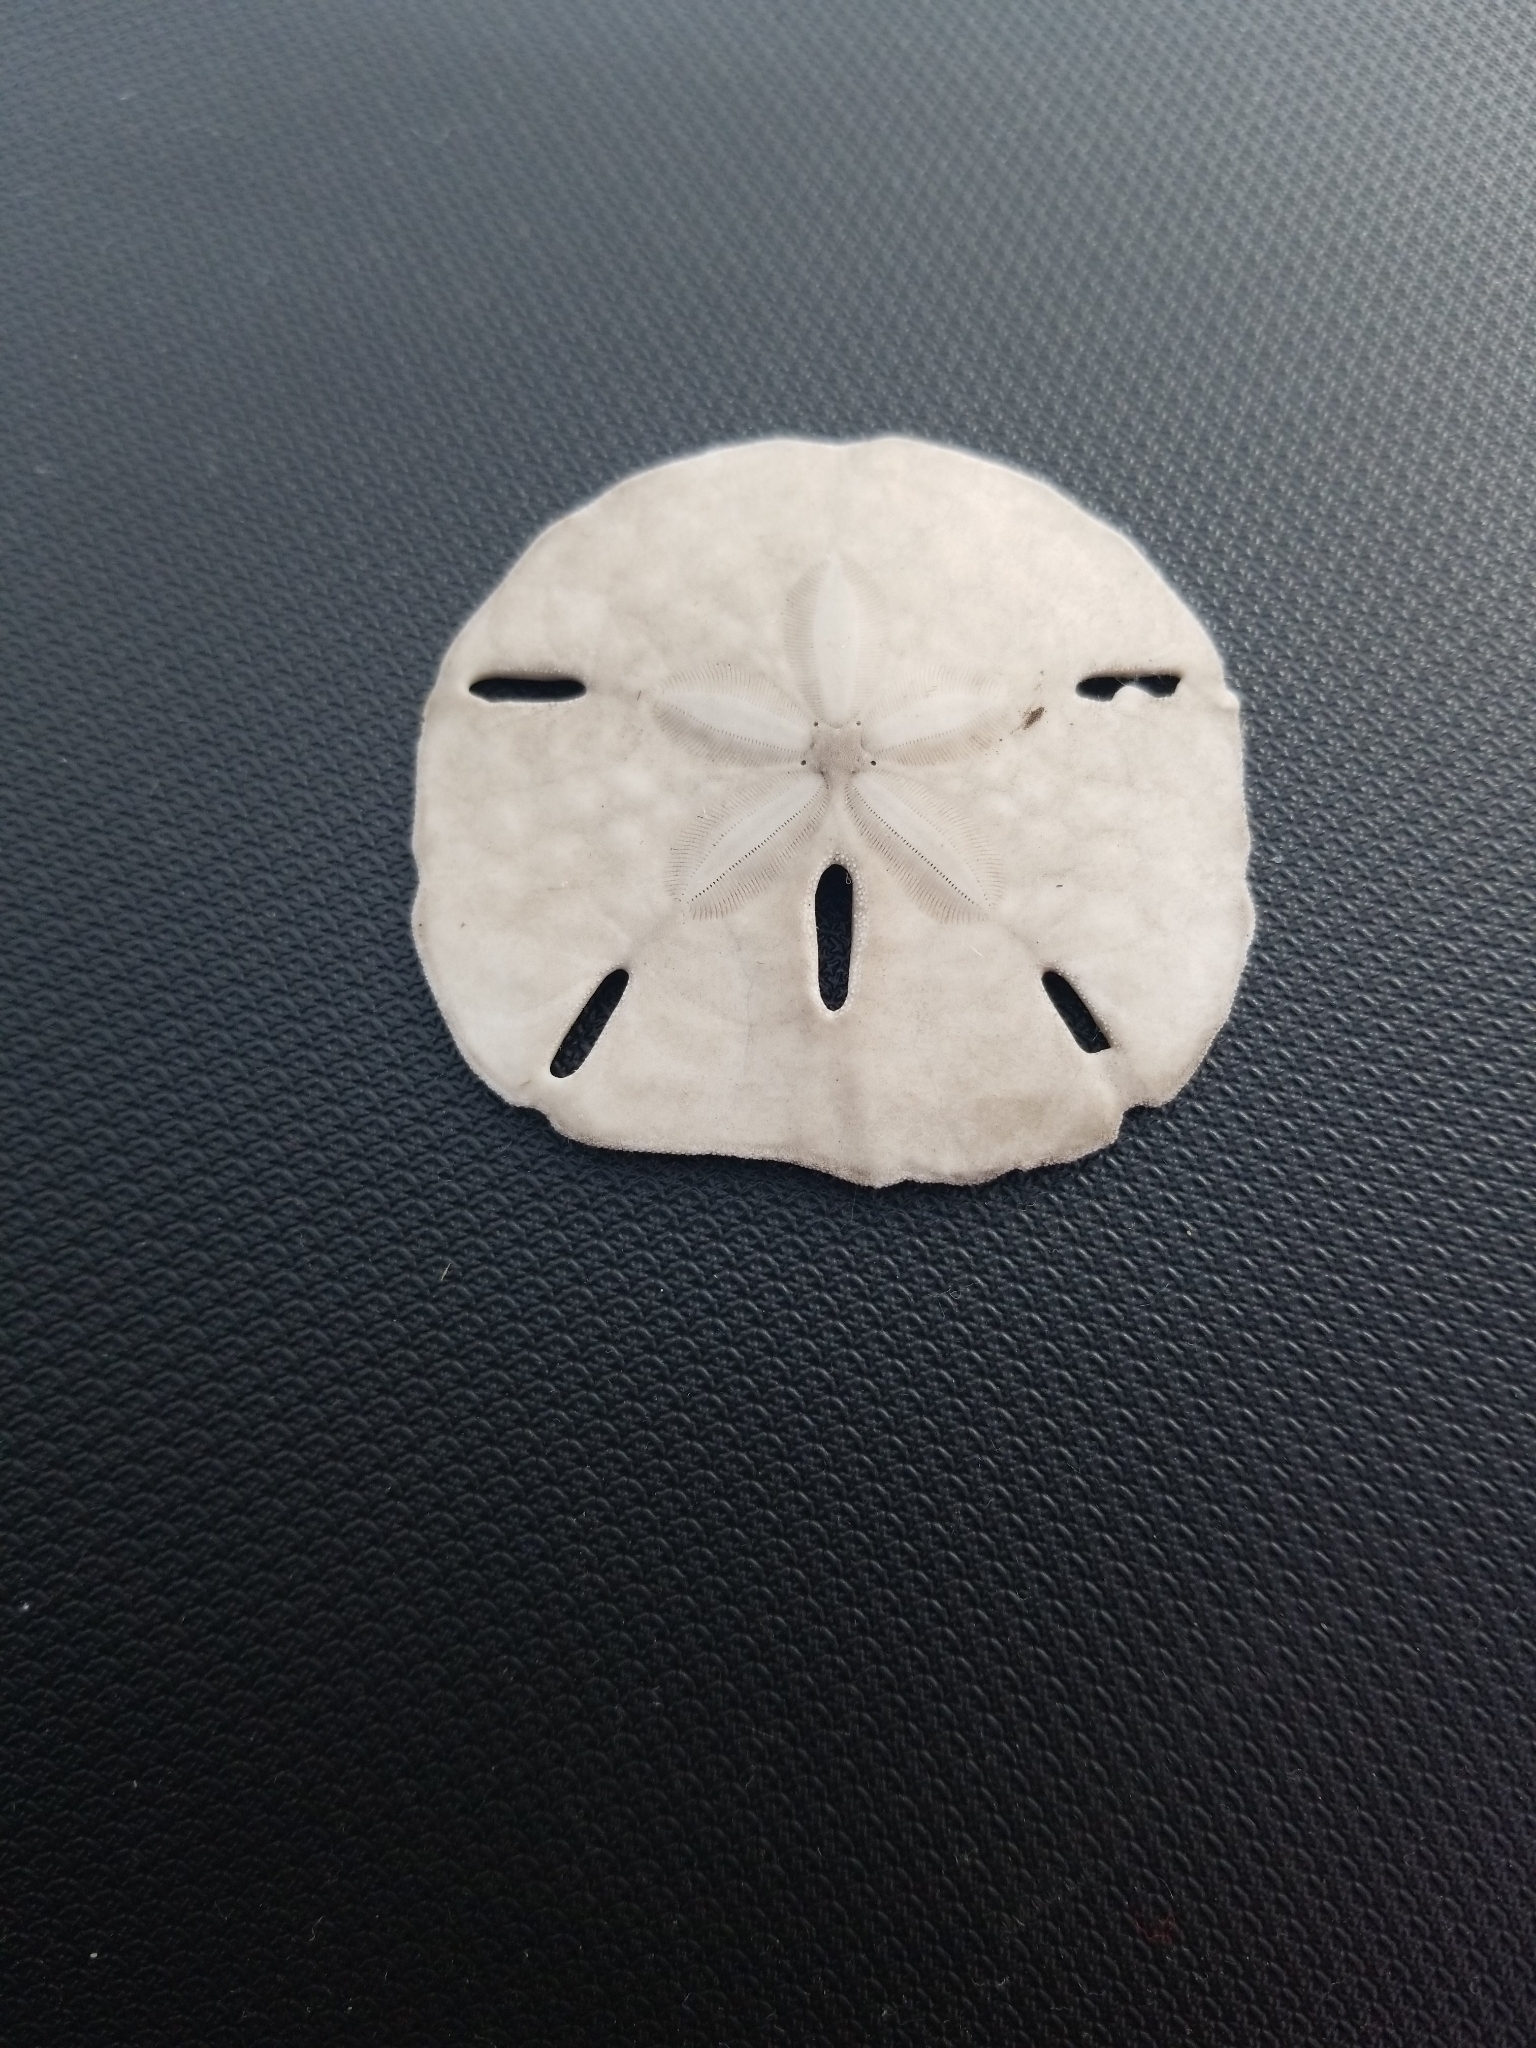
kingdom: Animalia
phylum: Echinodermata
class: Echinoidea
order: Echinolampadacea
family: Mellitidae
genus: Mellita
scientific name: Mellita quinquiesperforata
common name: Sand dollar
